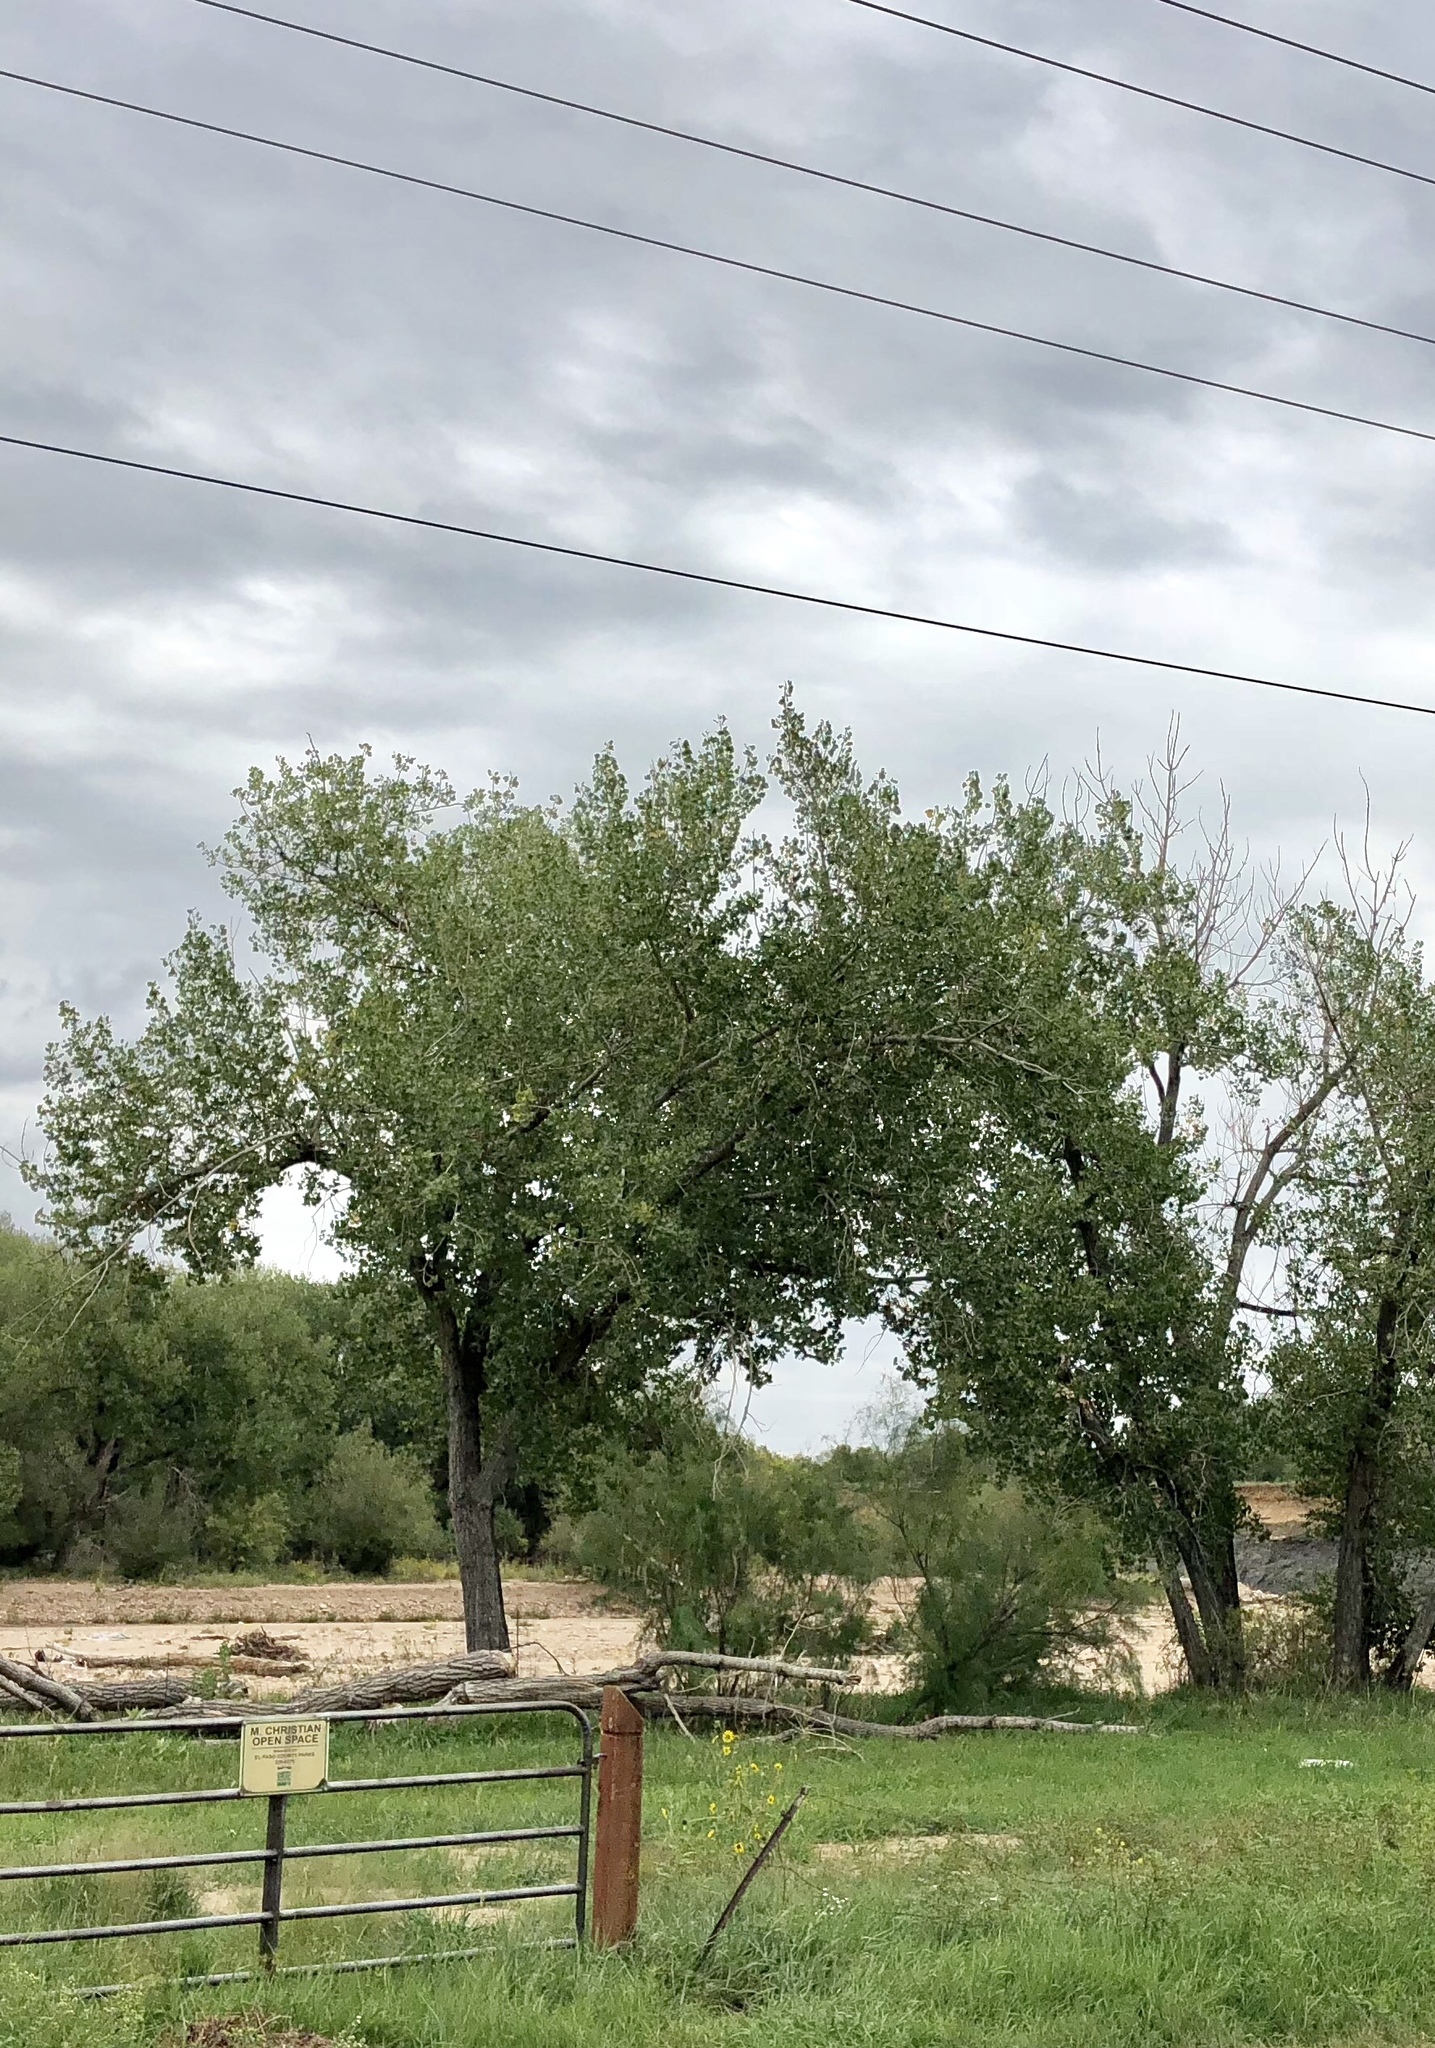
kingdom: Plantae
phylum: Tracheophyta
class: Magnoliopsida
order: Malpighiales
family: Salicaceae
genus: Populus
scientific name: Populus deltoides
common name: Eastern cottonwood
